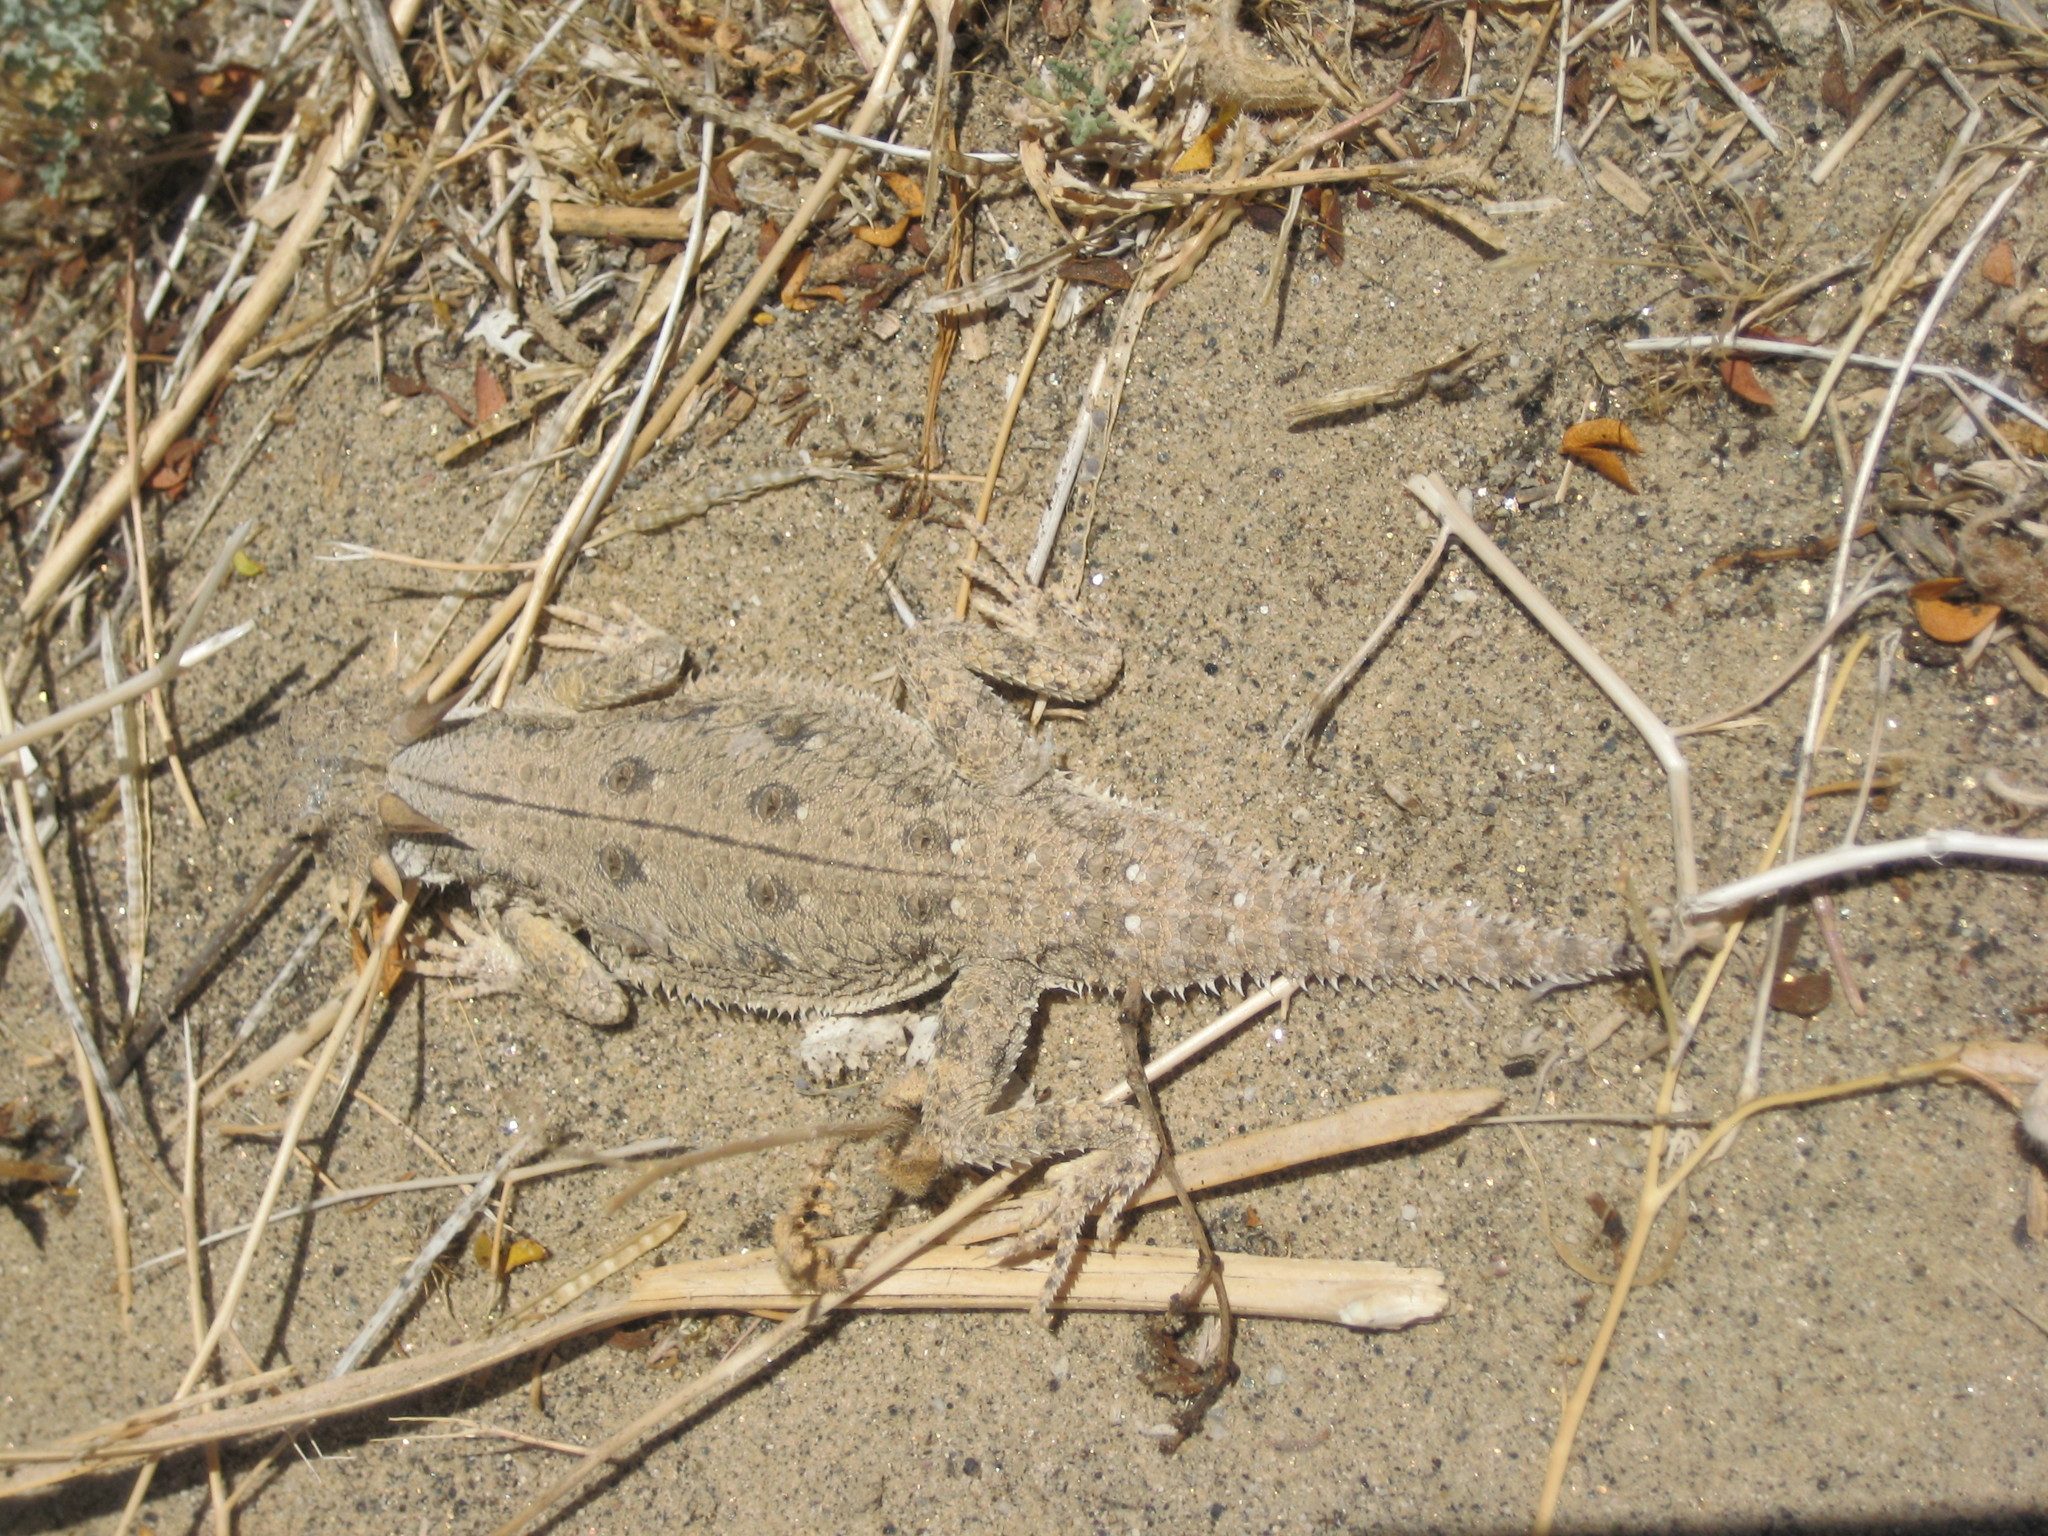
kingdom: Animalia
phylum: Chordata
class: Squamata
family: Phrynosomatidae
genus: Phrynosoma
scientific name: Phrynosoma mcallii
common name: Flat-tailed horned lizard
